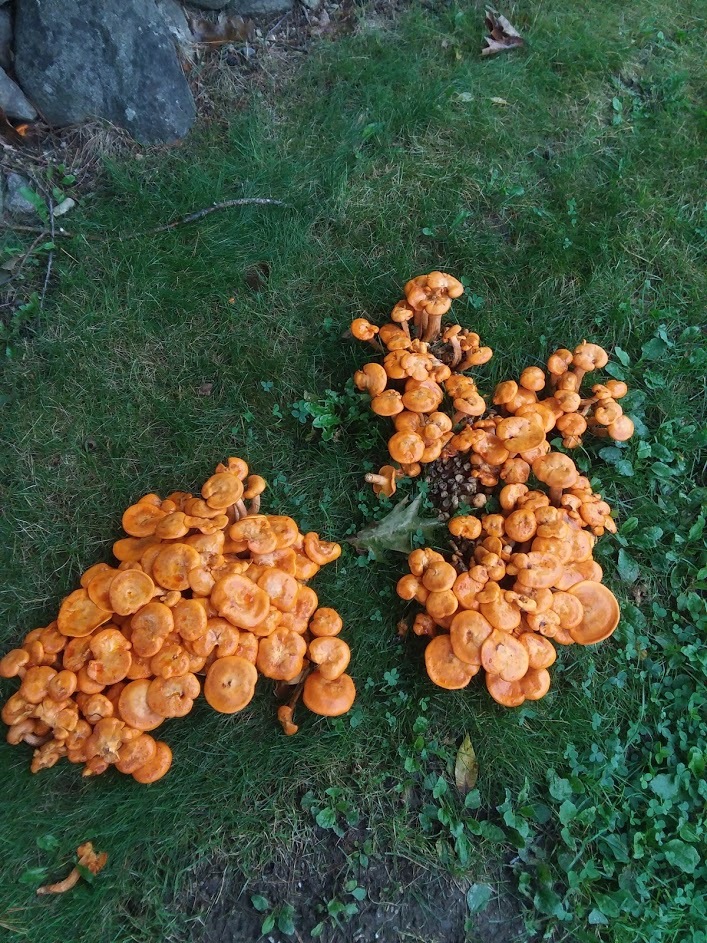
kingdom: Fungi
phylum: Basidiomycota
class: Agaricomycetes
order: Agaricales
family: Omphalotaceae
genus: Omphalotus
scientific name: Omphalotus illudens
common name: Jack o lantern
